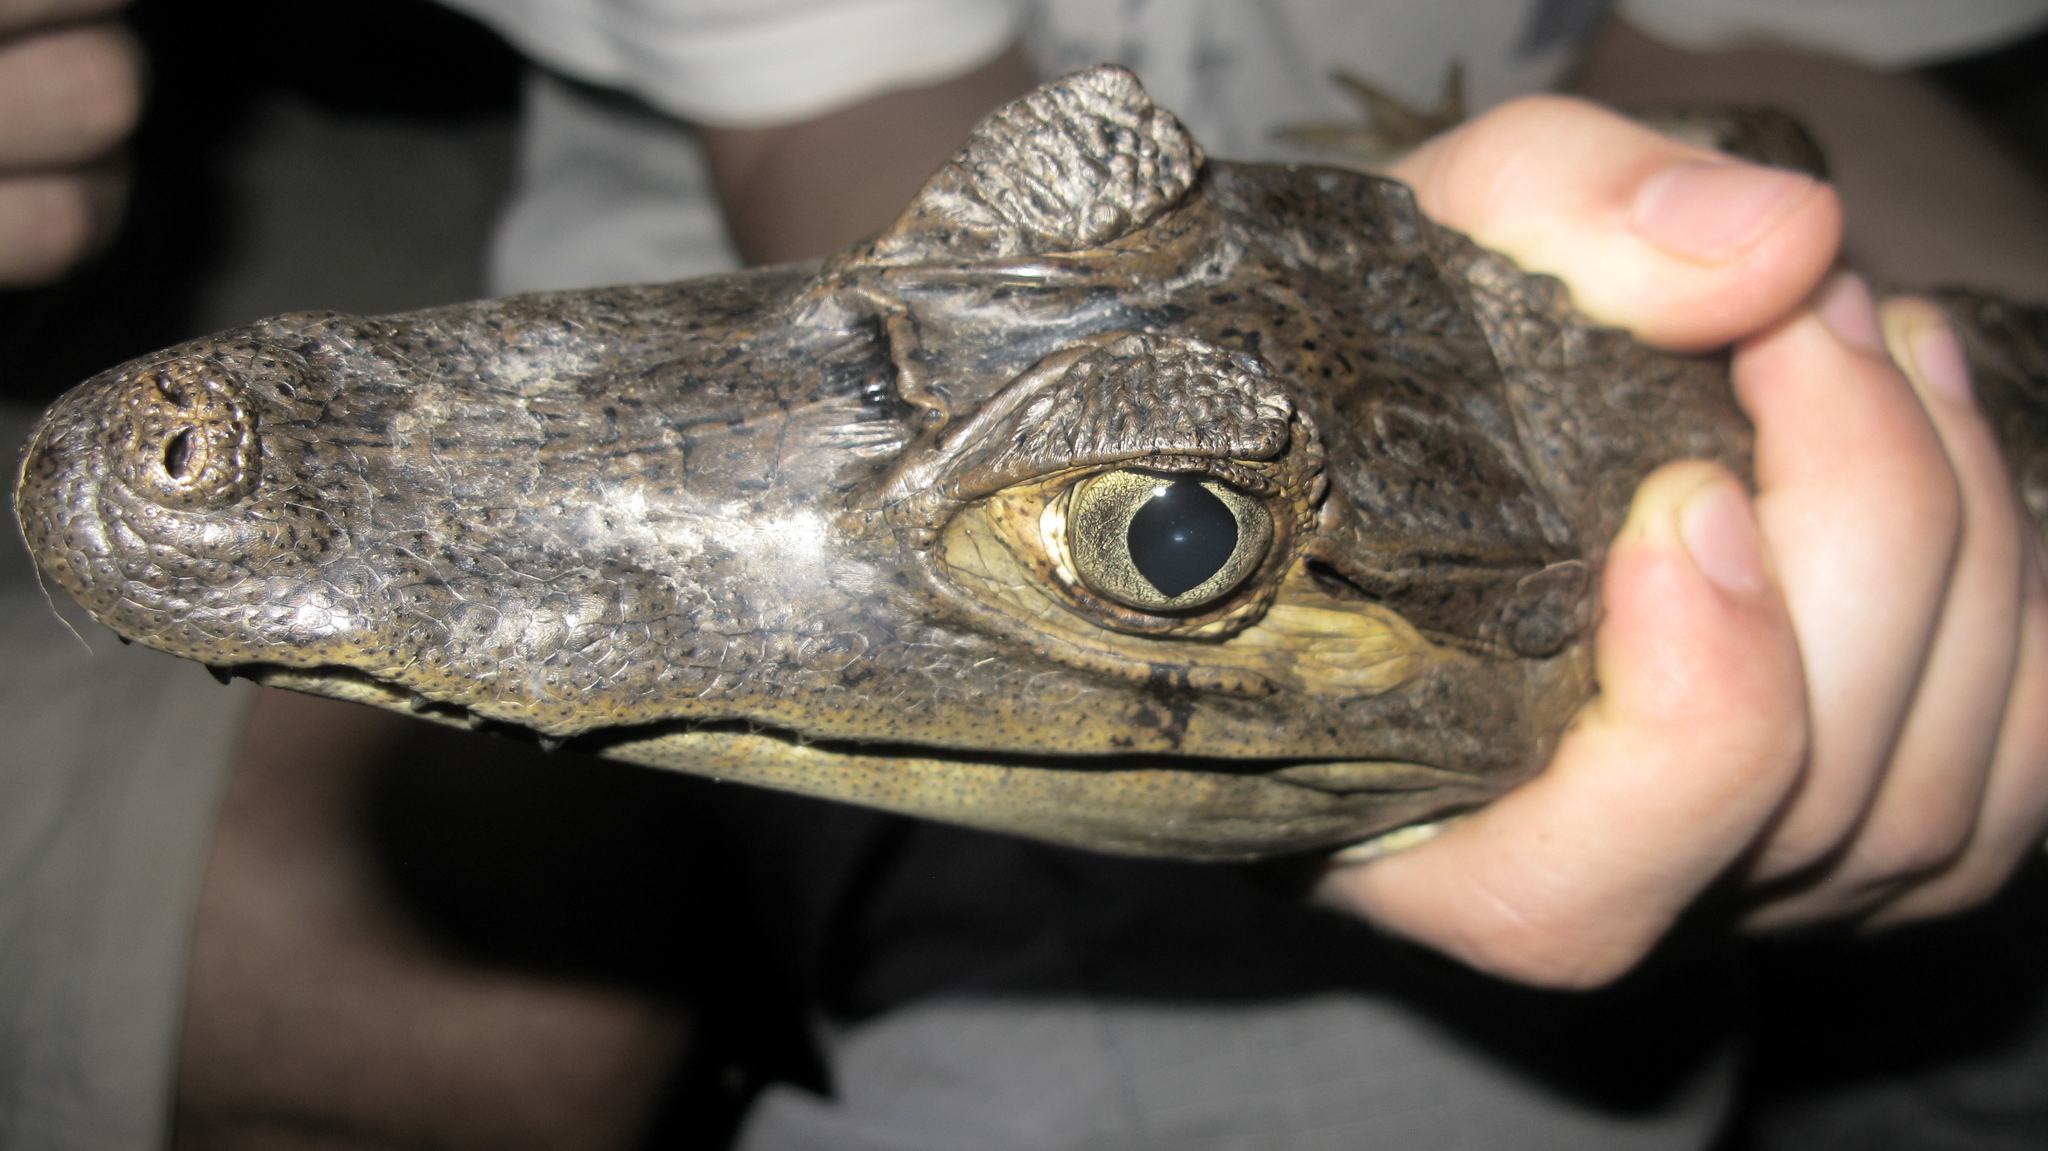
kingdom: Animalia
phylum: Chordata
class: Crocodylia
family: Alligatoridae
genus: Caiman
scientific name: Caiman crocodilus
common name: Common caiman
